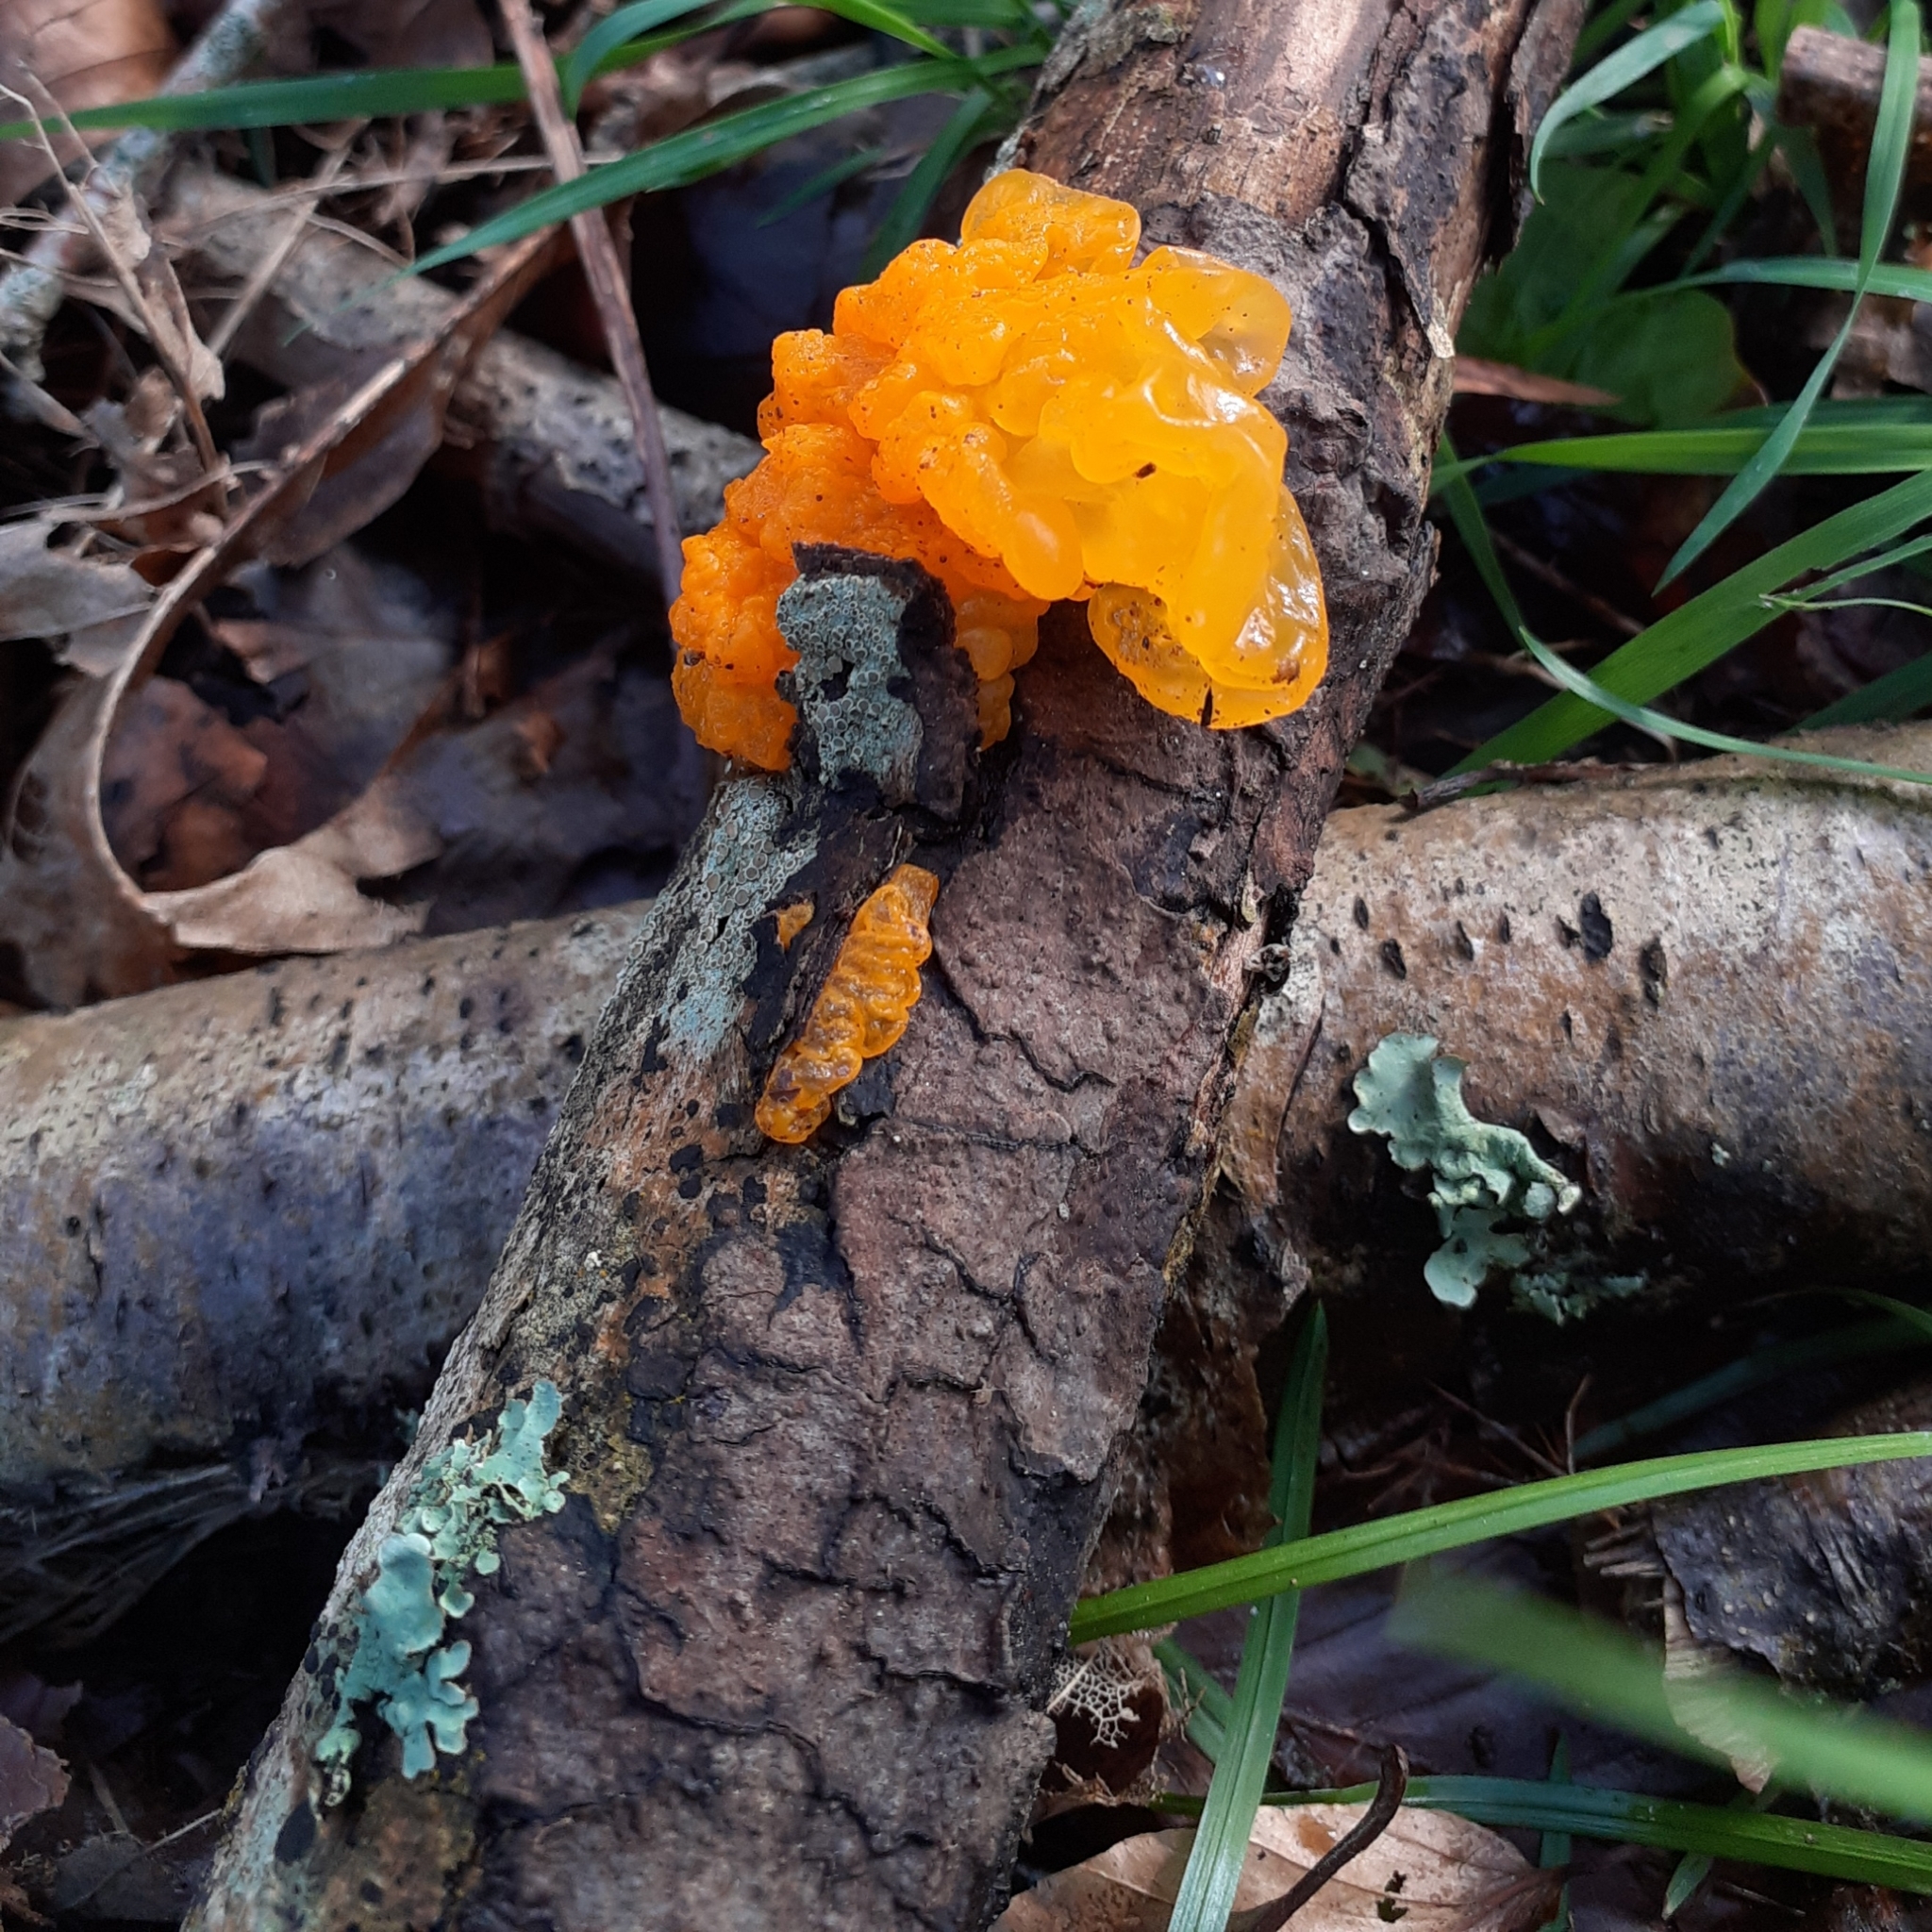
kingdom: Fungi
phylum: Basidiomycota
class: Tremellomycetes
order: Tremellales
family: Tremellaceae
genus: Tremella
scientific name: Tremella mesenterica
